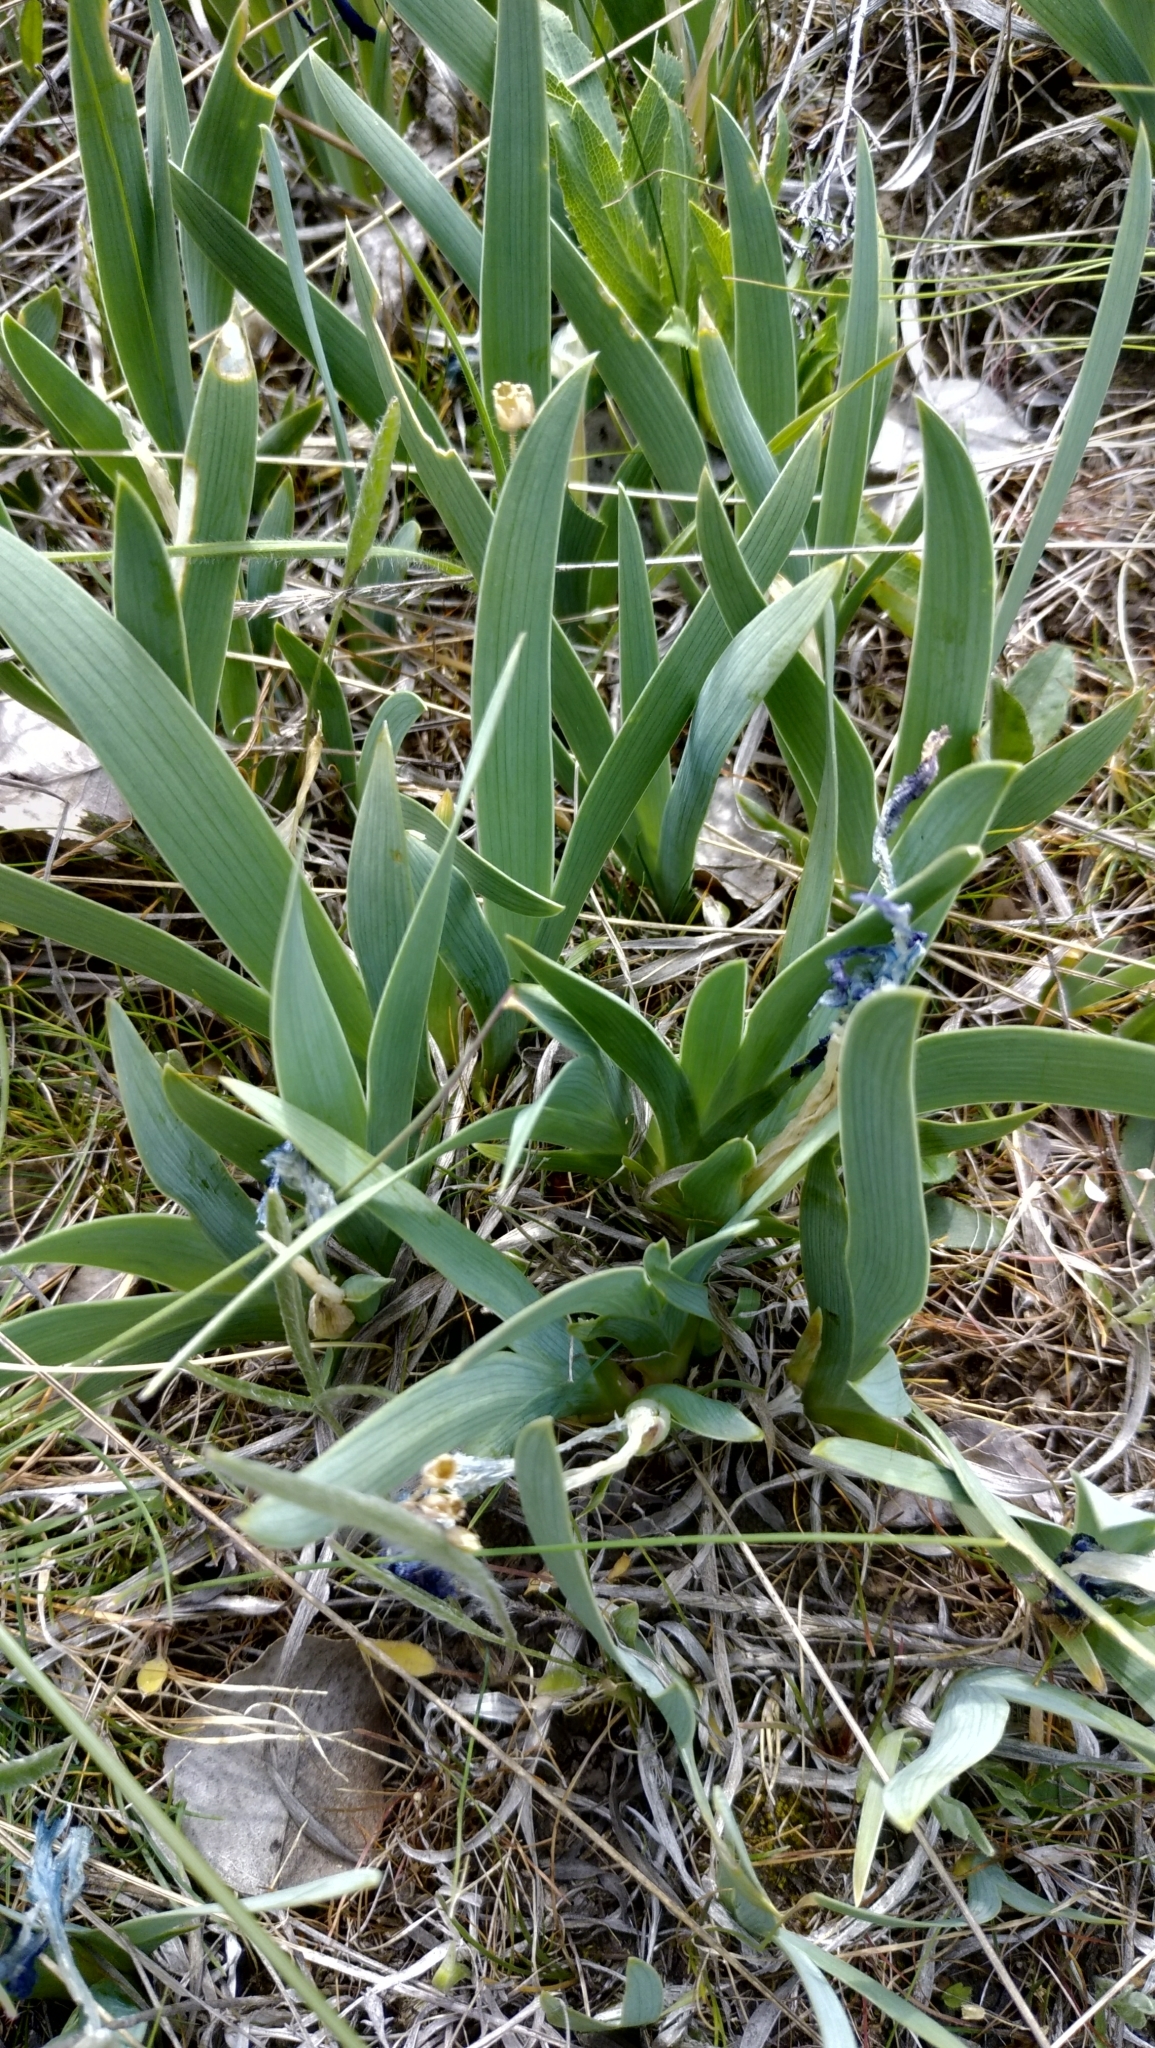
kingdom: Plantae
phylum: Tracheophyta
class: Liliopsida
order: Asparagales
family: Iridaceae
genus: Iris
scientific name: Iris pumila
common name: Dwarf iris
